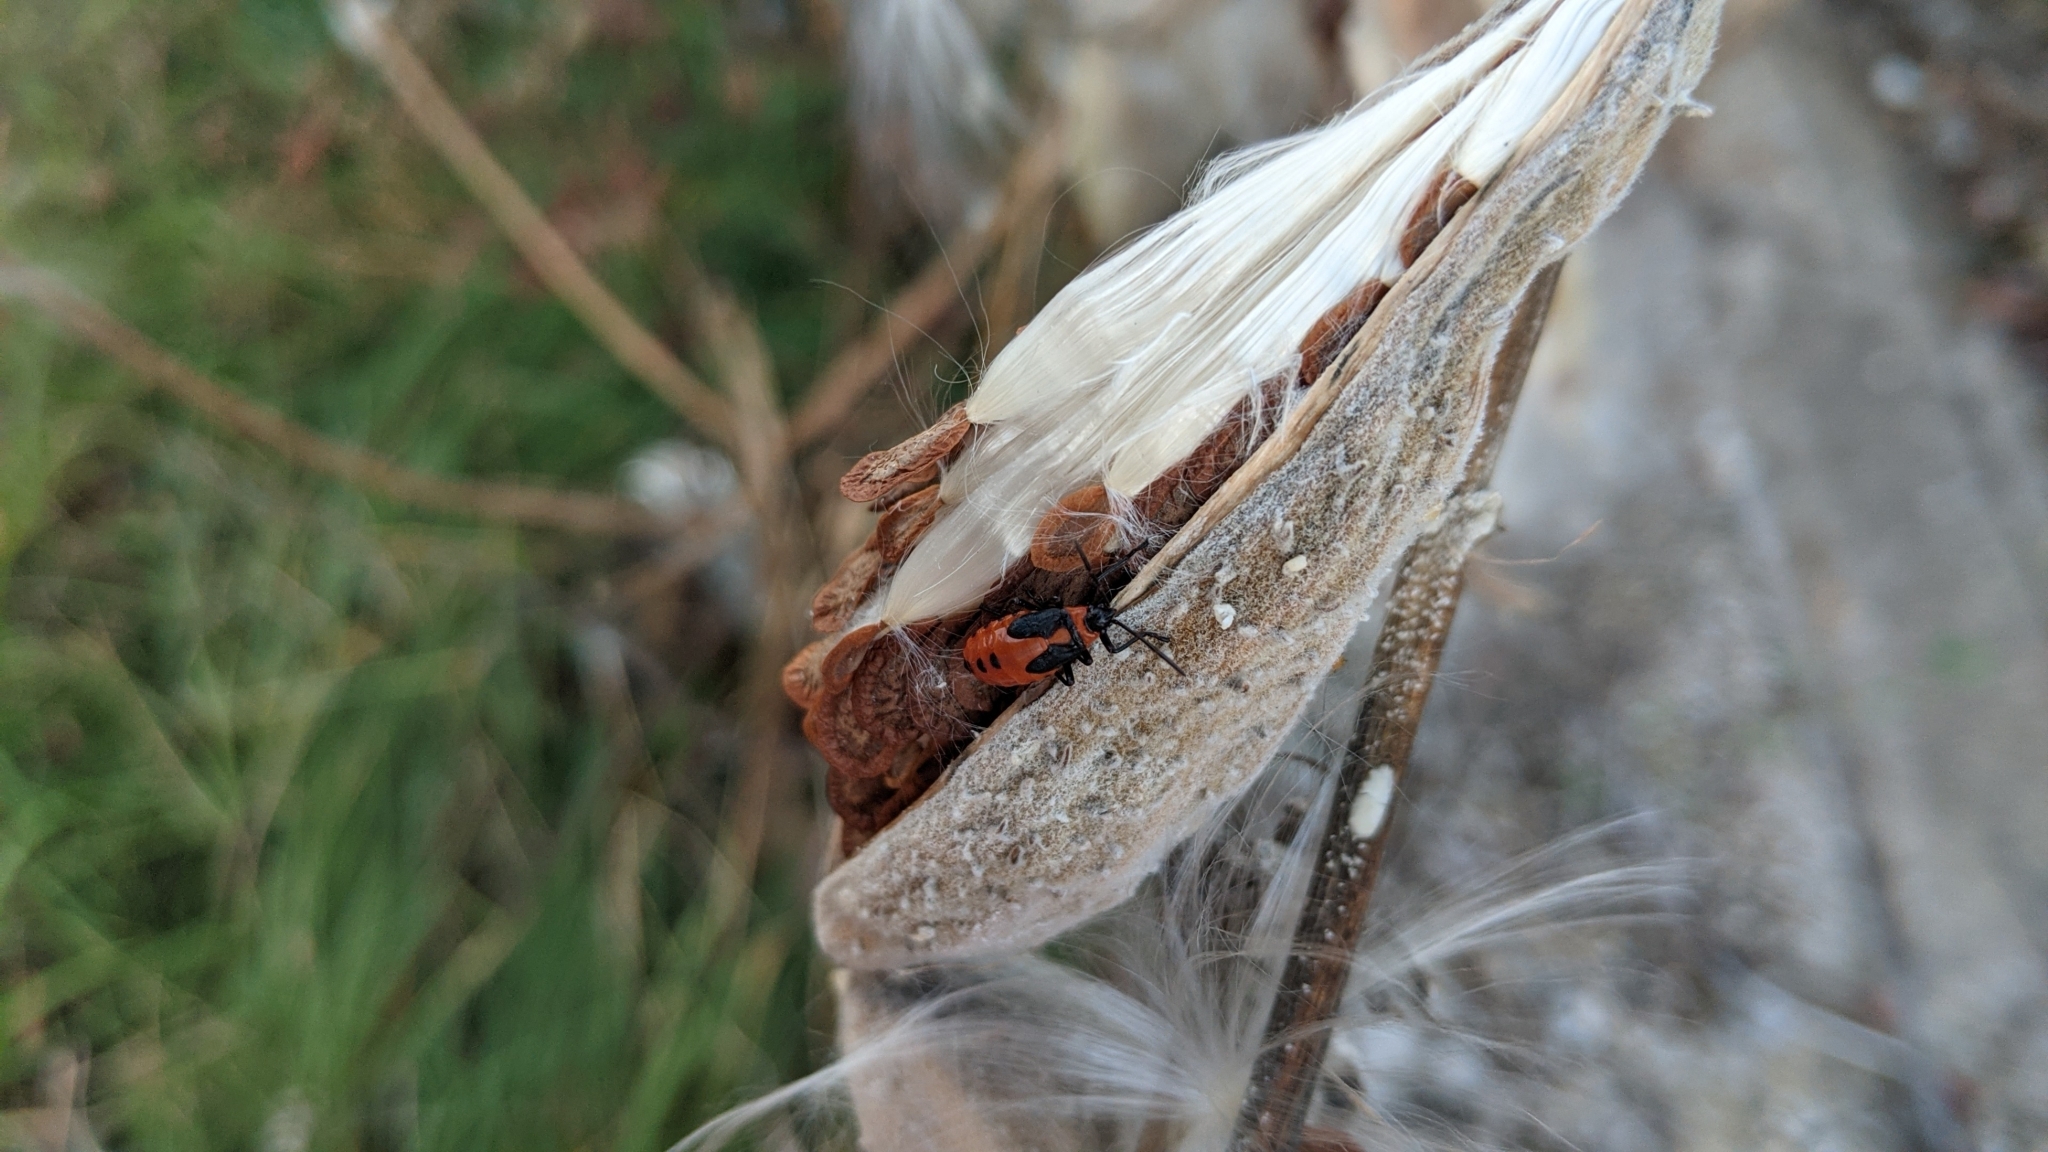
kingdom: Plantae
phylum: Tracheophyta
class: Magnoliopsida
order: Gentianales
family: Apocynaceae
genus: Asclepias
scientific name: Asclepias syriaca
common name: Common milkweed
